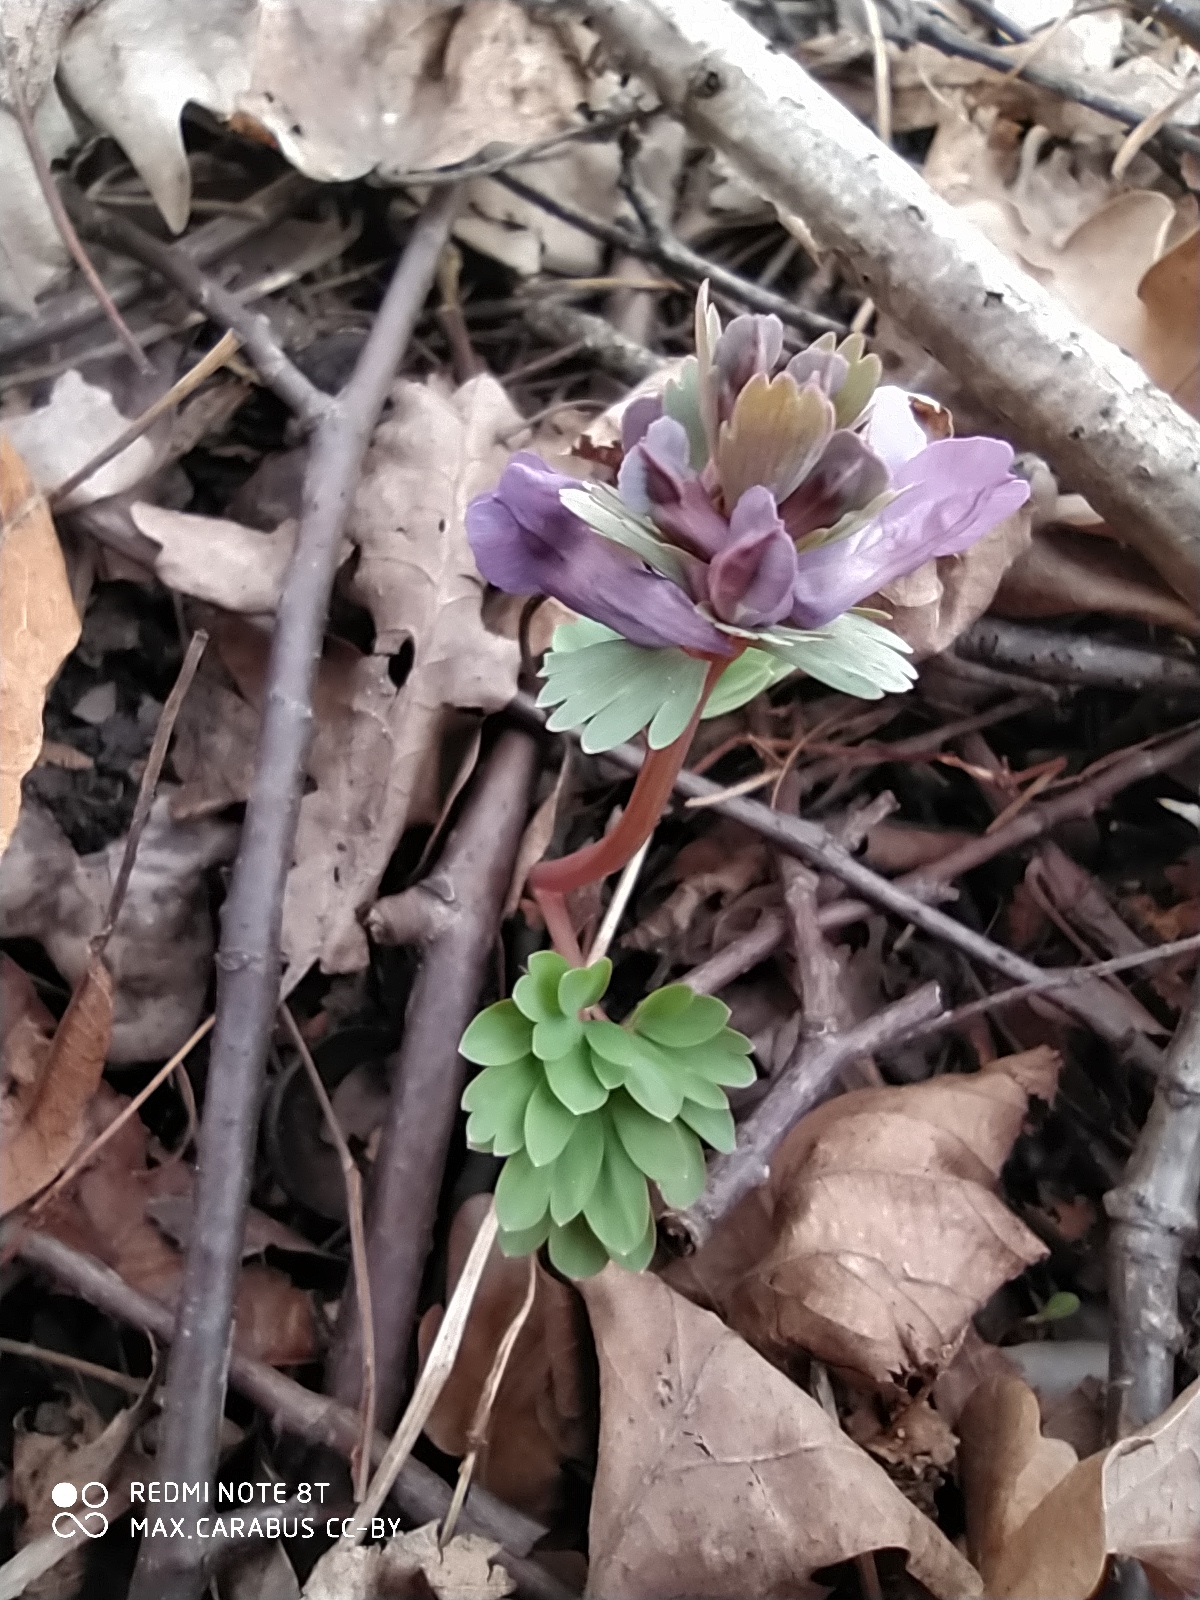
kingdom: Plantae
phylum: Tracheophyta
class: Magnoliopsida
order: Ranunculales
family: Papaveraceae
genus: Corydalis
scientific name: Corydalis solida
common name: Bird-in-a-bush
